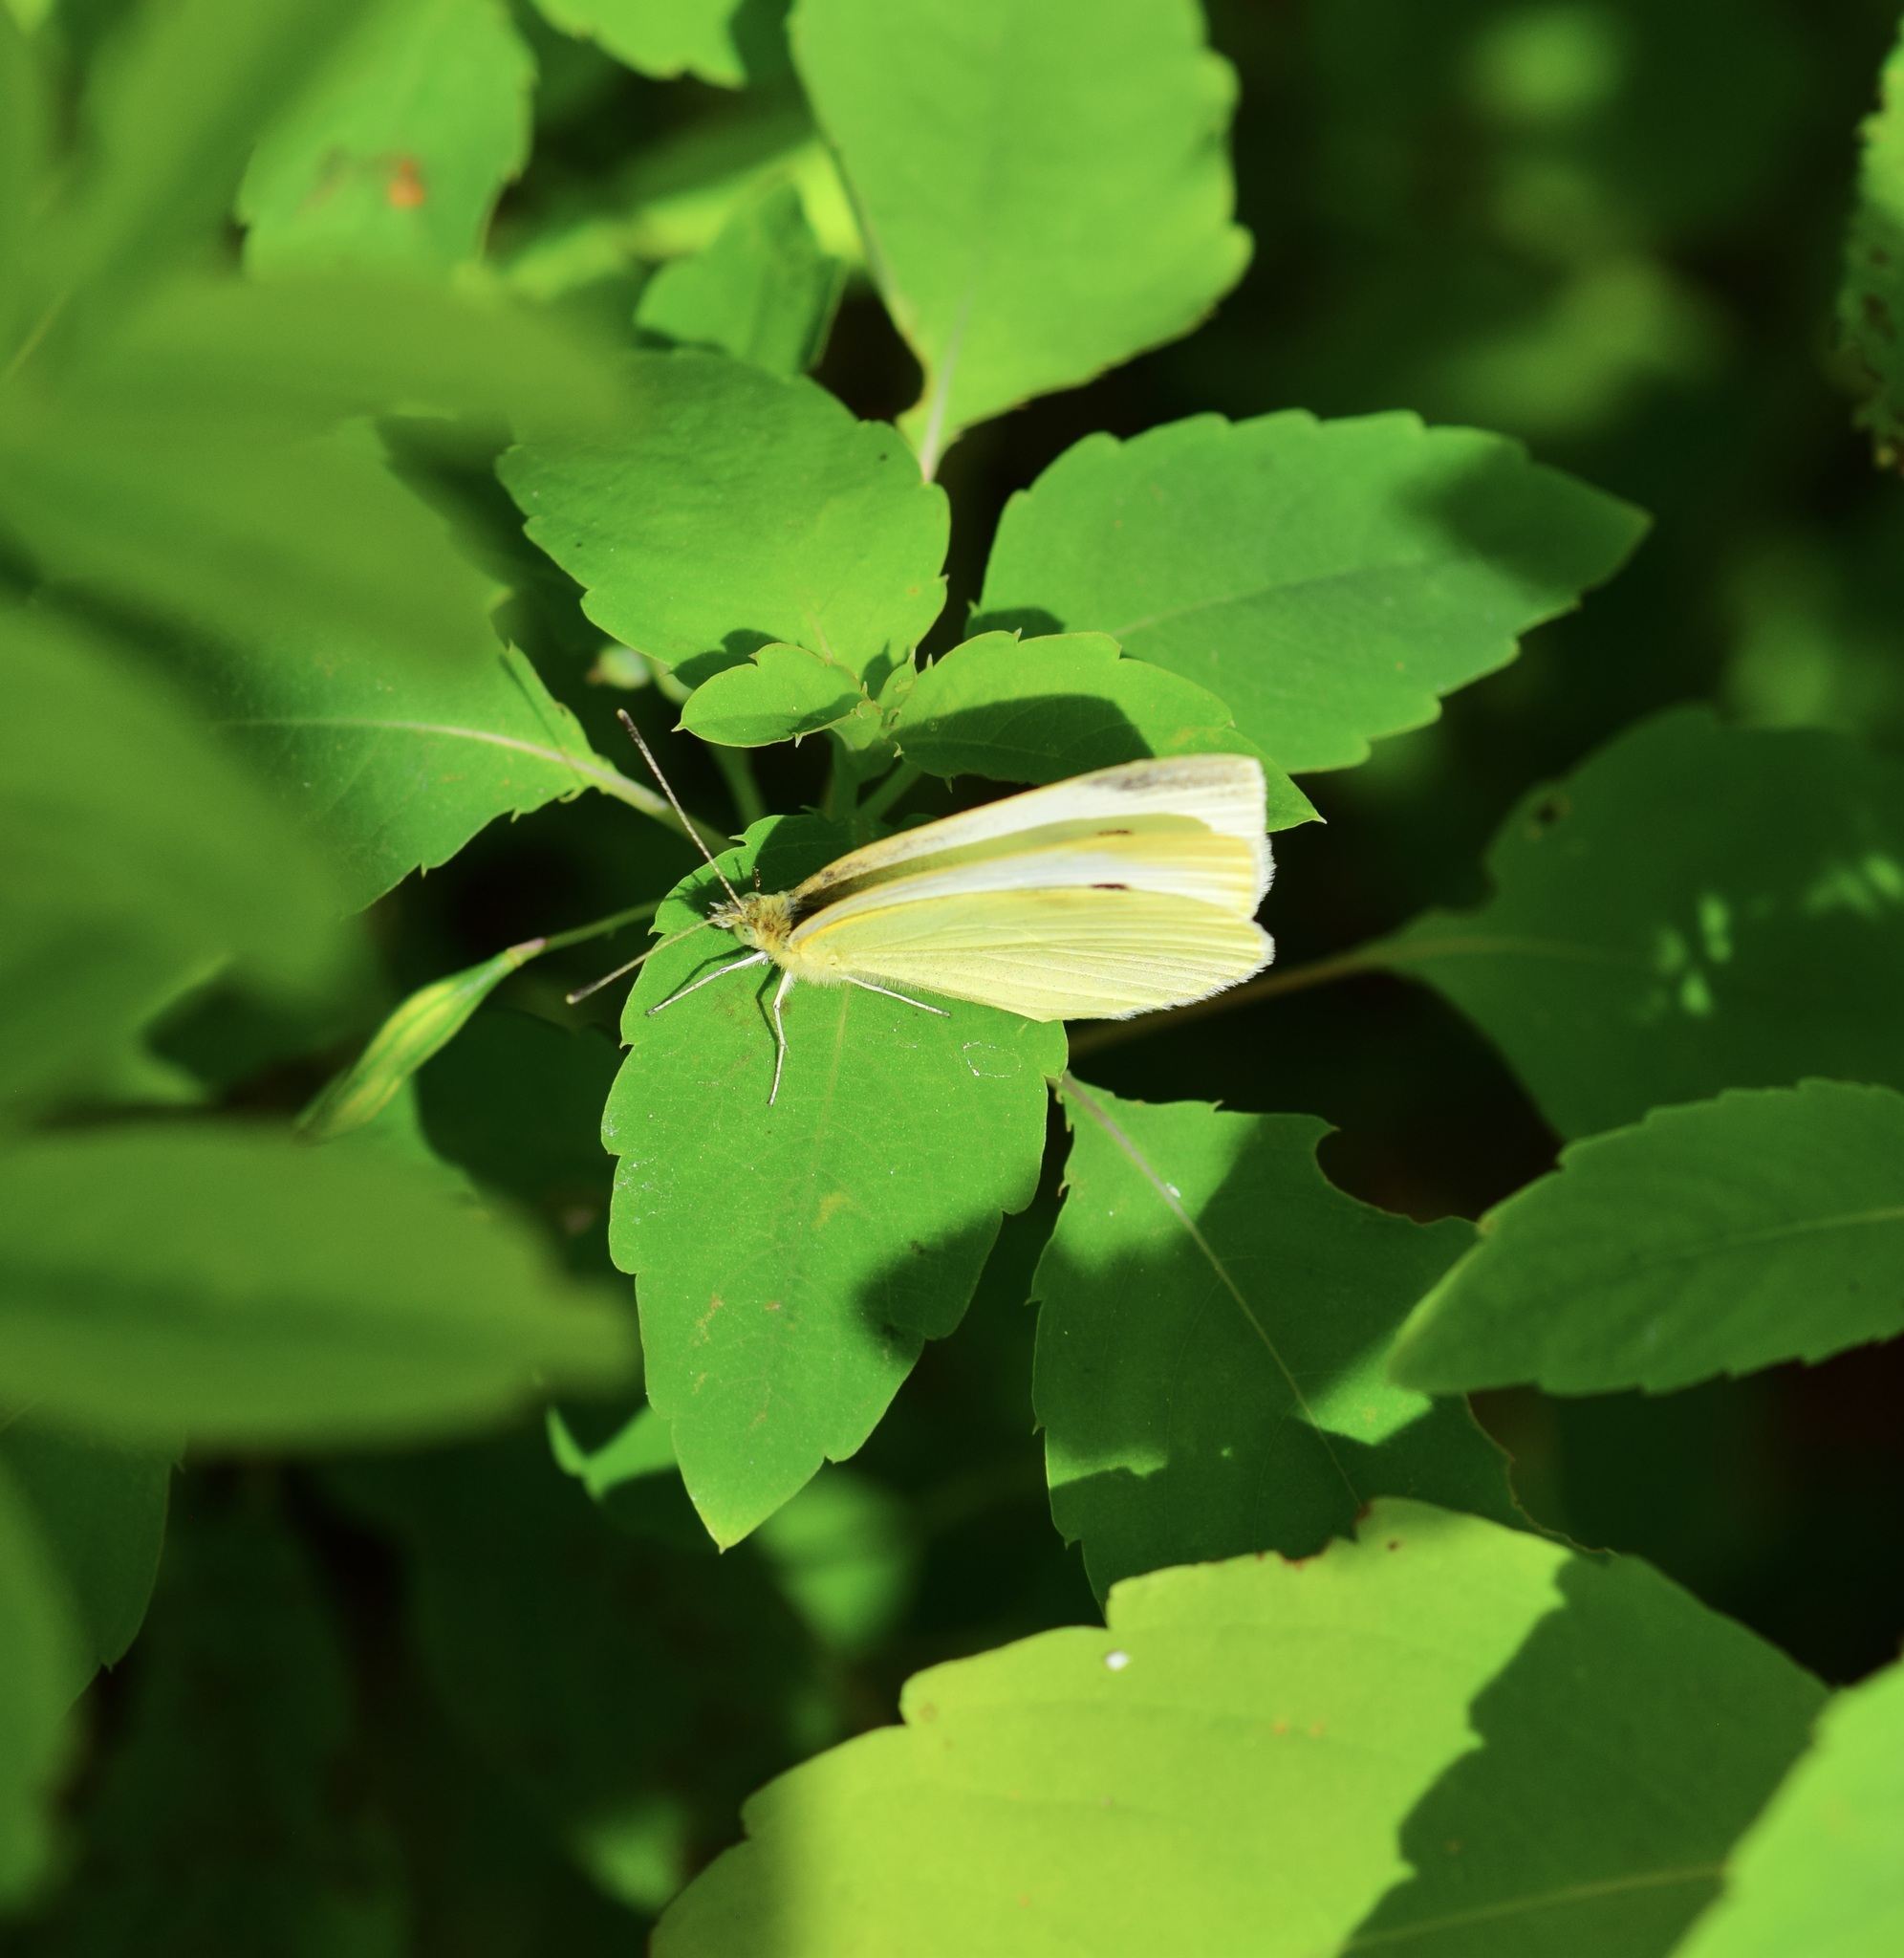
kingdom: Animalia
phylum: Arthropoda
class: Insecta
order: Lepidoptera
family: Pieridae
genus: Pieris
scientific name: Pieris rapae
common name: Small white
